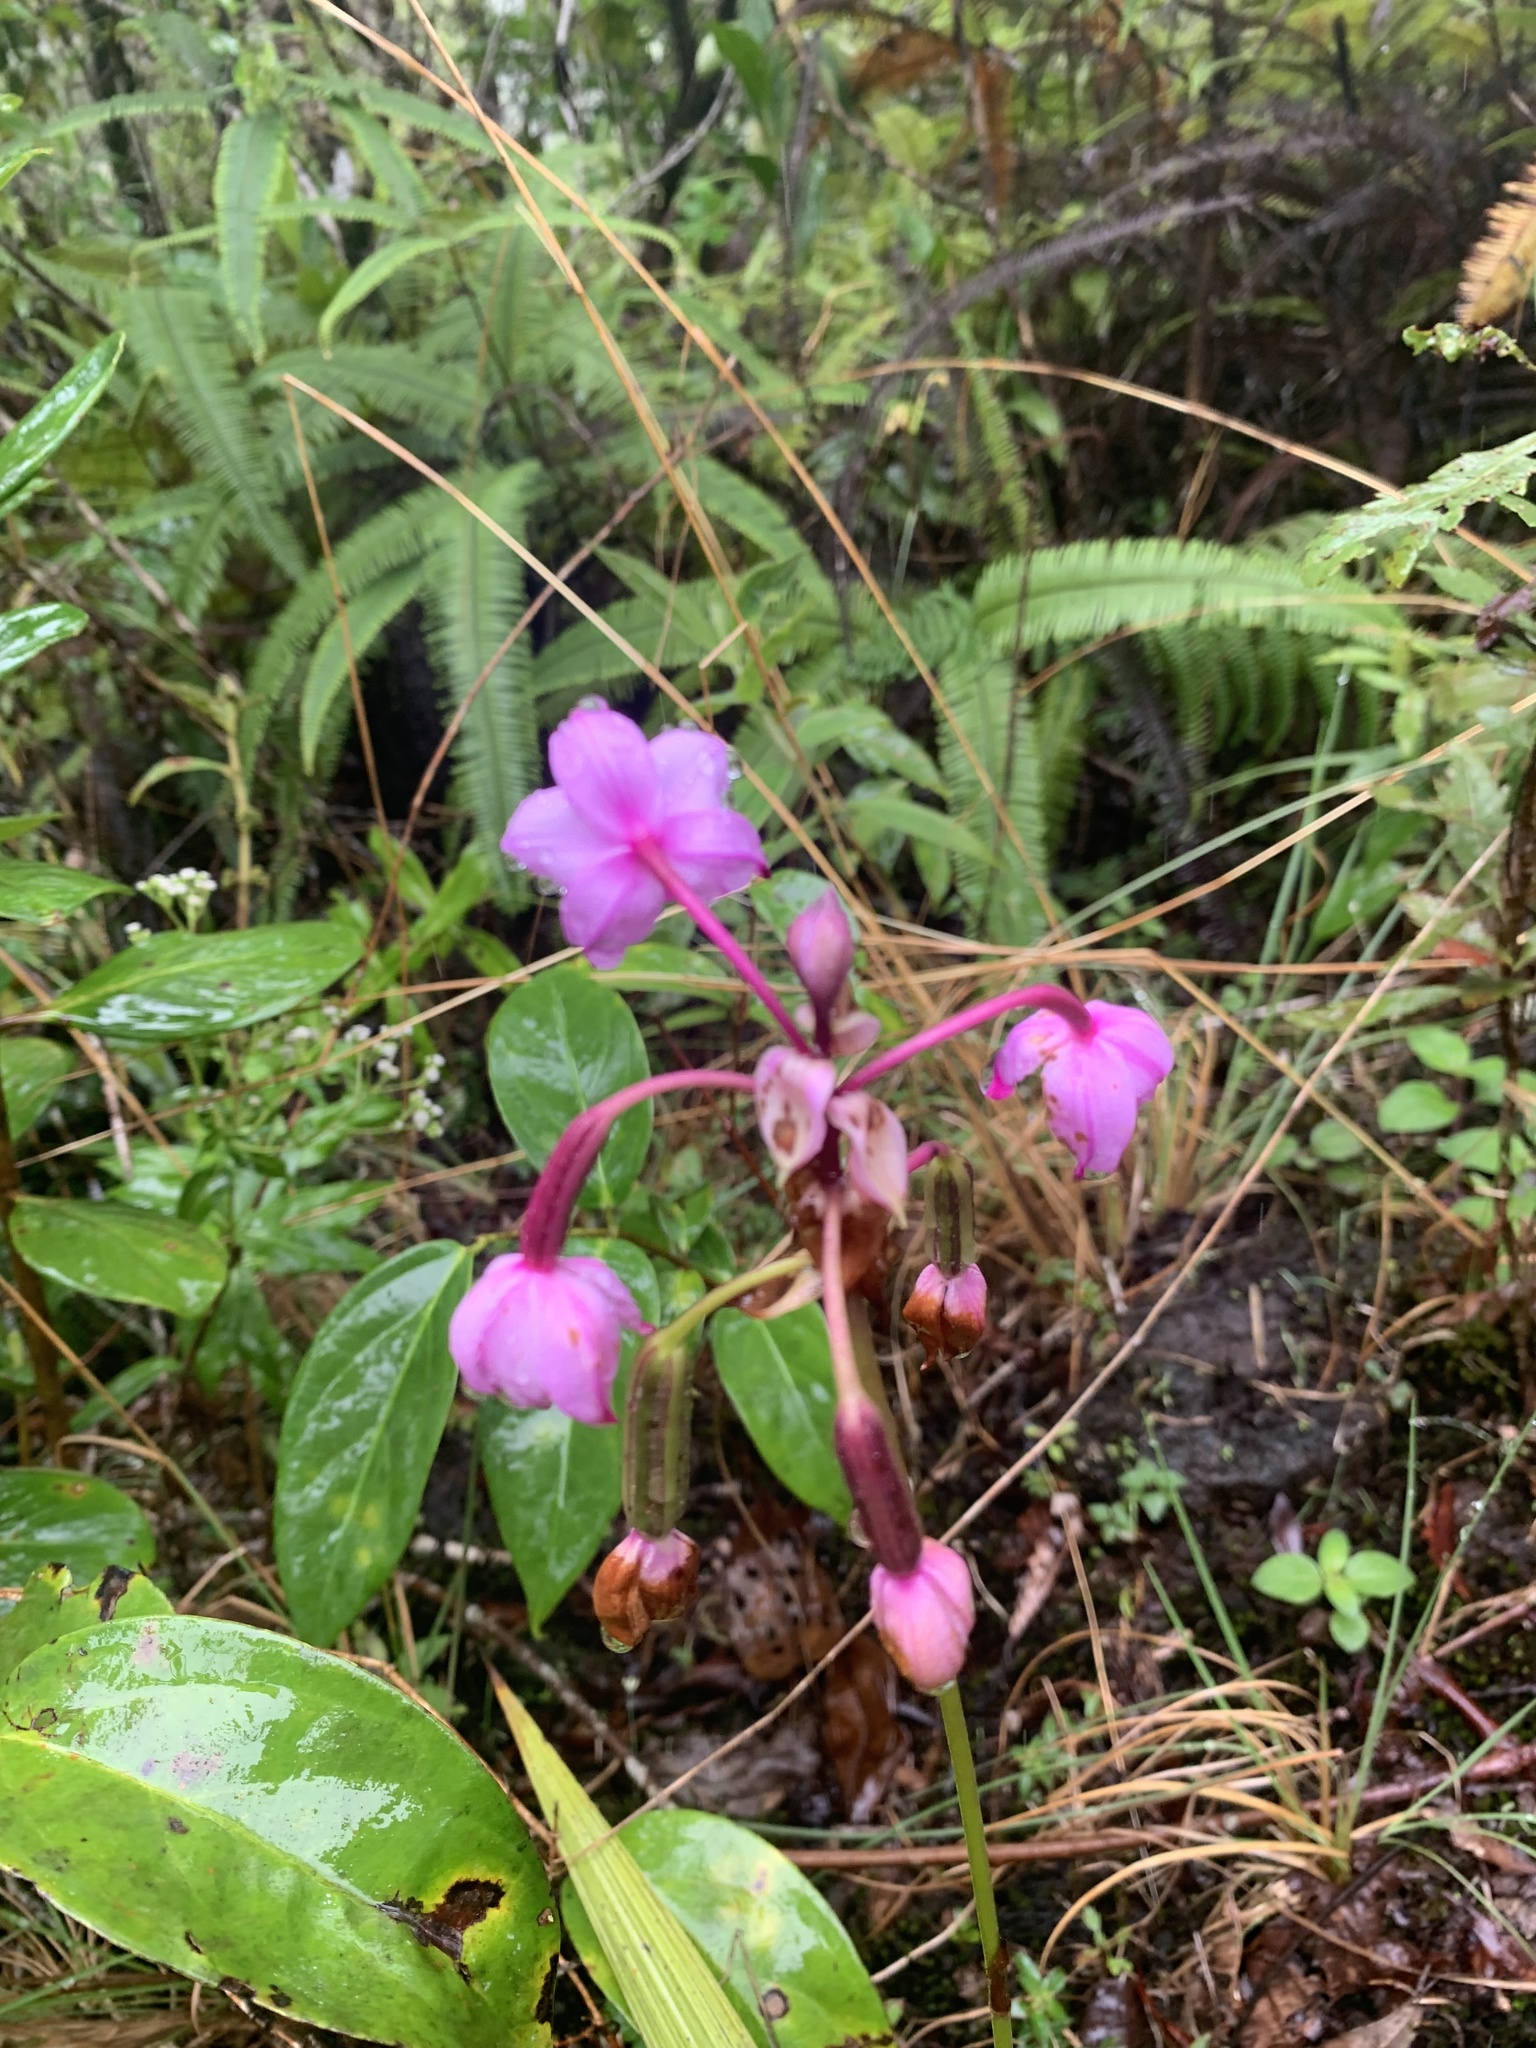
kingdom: Plantae
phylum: Tracheophyta
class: Liliopsida
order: Asparagales
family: Orchidaceae
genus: Spathoglottis
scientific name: Spathoglottis plicata
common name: Philippine ground orchid
